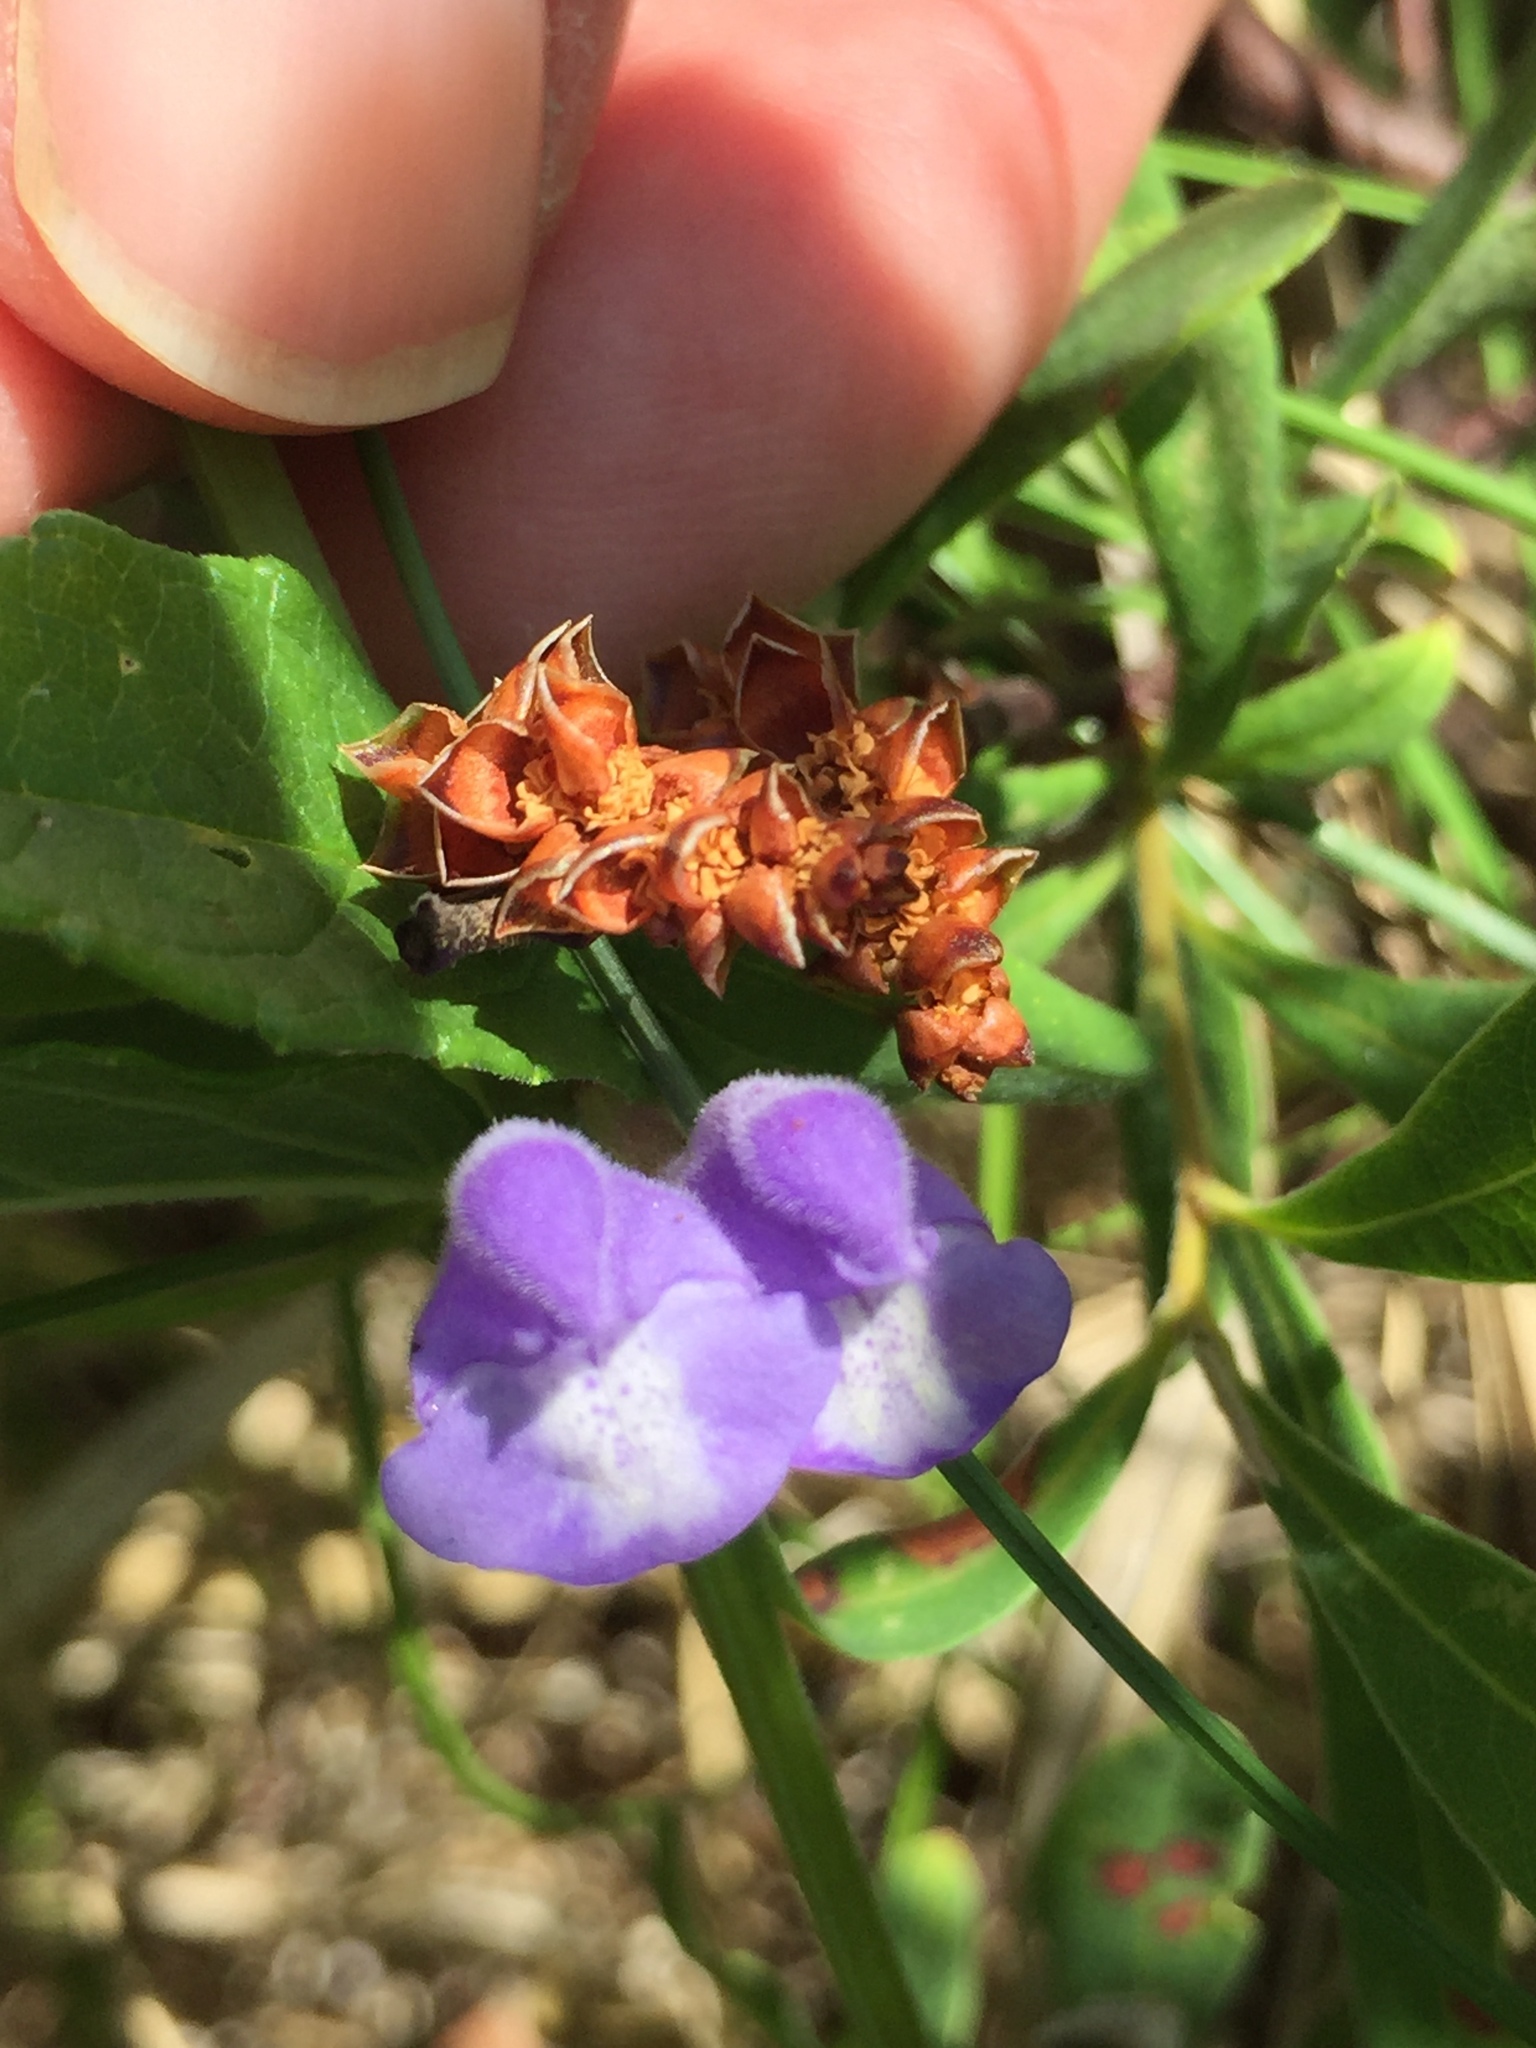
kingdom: Plantae
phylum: Tracheophyta
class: Magnoliopsida
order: Lamiales
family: Lamiaceae
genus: Scutellaria
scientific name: Scutellaria galericulata
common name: Skullcap
